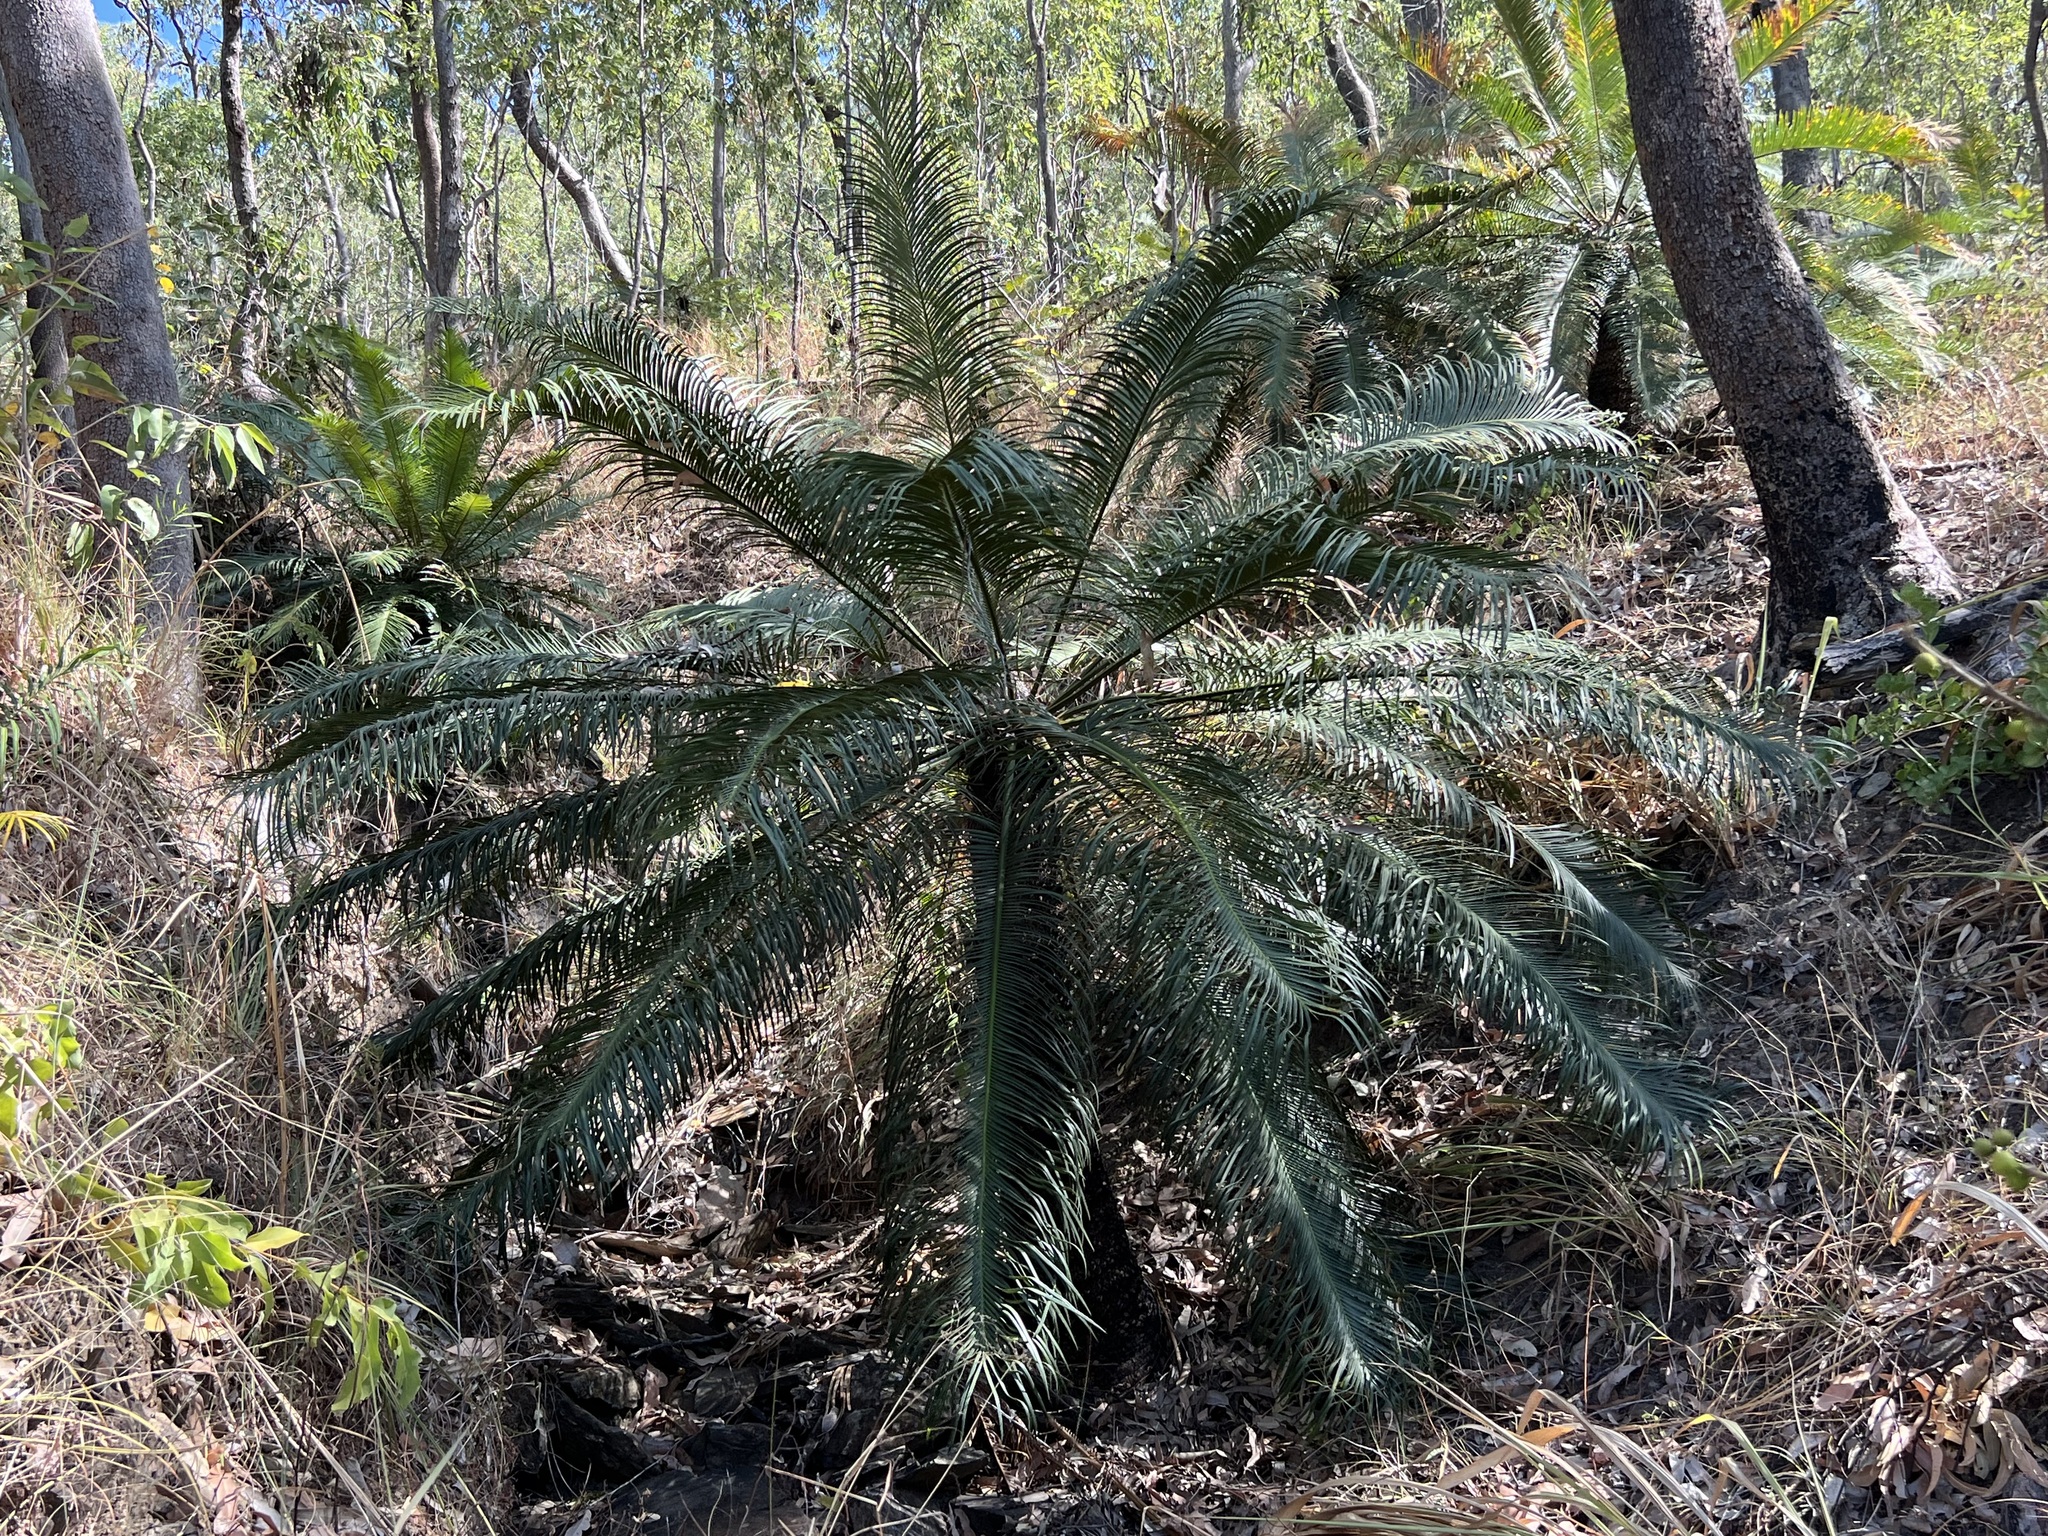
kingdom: Plantae
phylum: Tracheophyta
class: Cycadopsida
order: Cycadales
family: Cycadaceae
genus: Cycas
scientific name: Cycas media
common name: Queensland cycas
